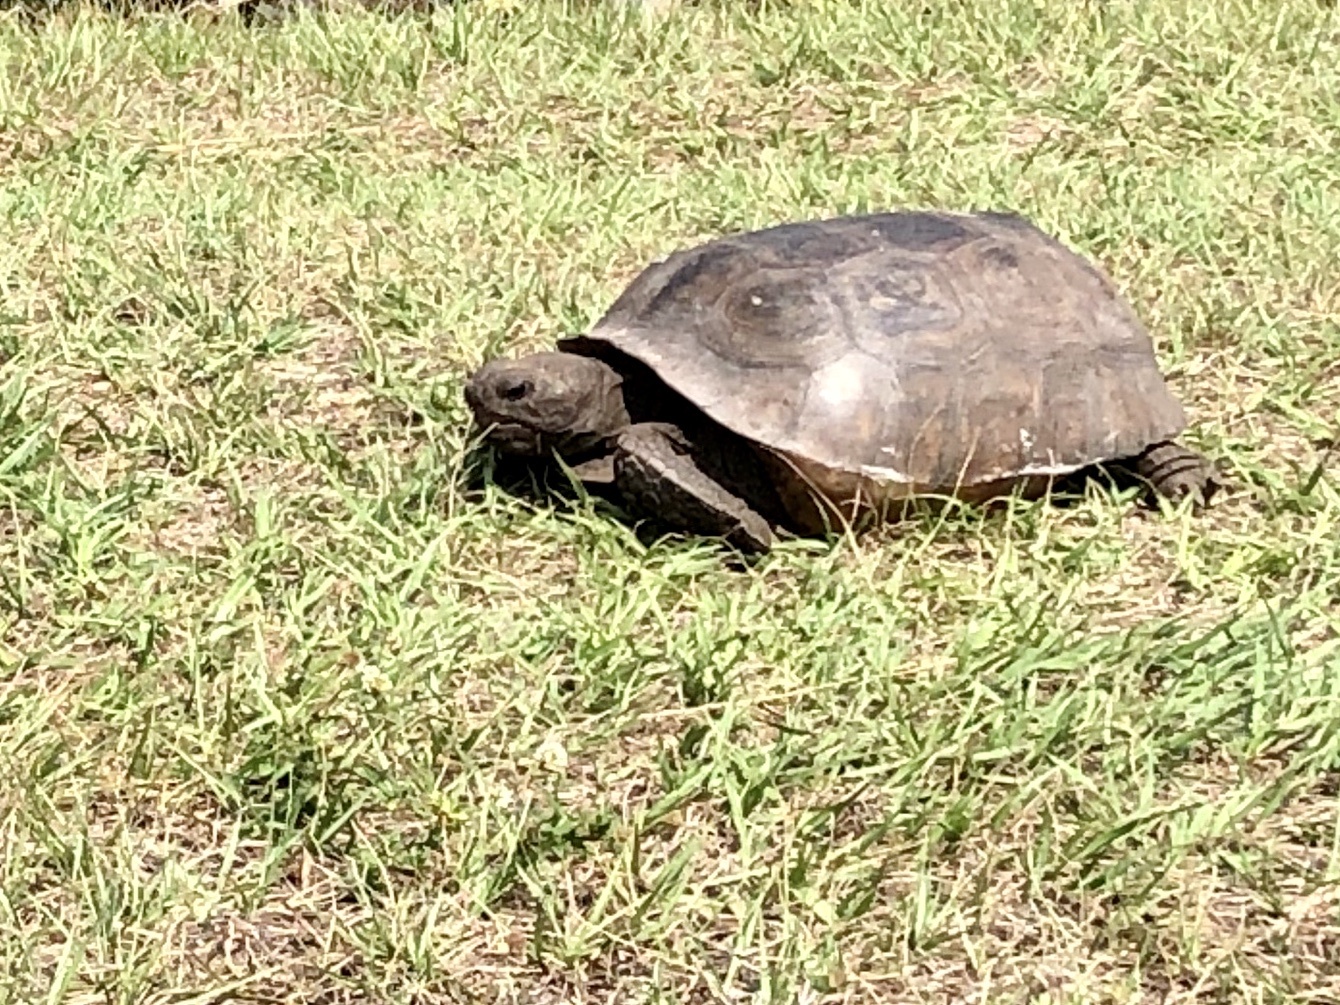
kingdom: Animalia
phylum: Chordata
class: Testudines
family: Testudinidae
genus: Gopherus
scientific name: Gopherus polyphemus
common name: Florida gopher tortoise
